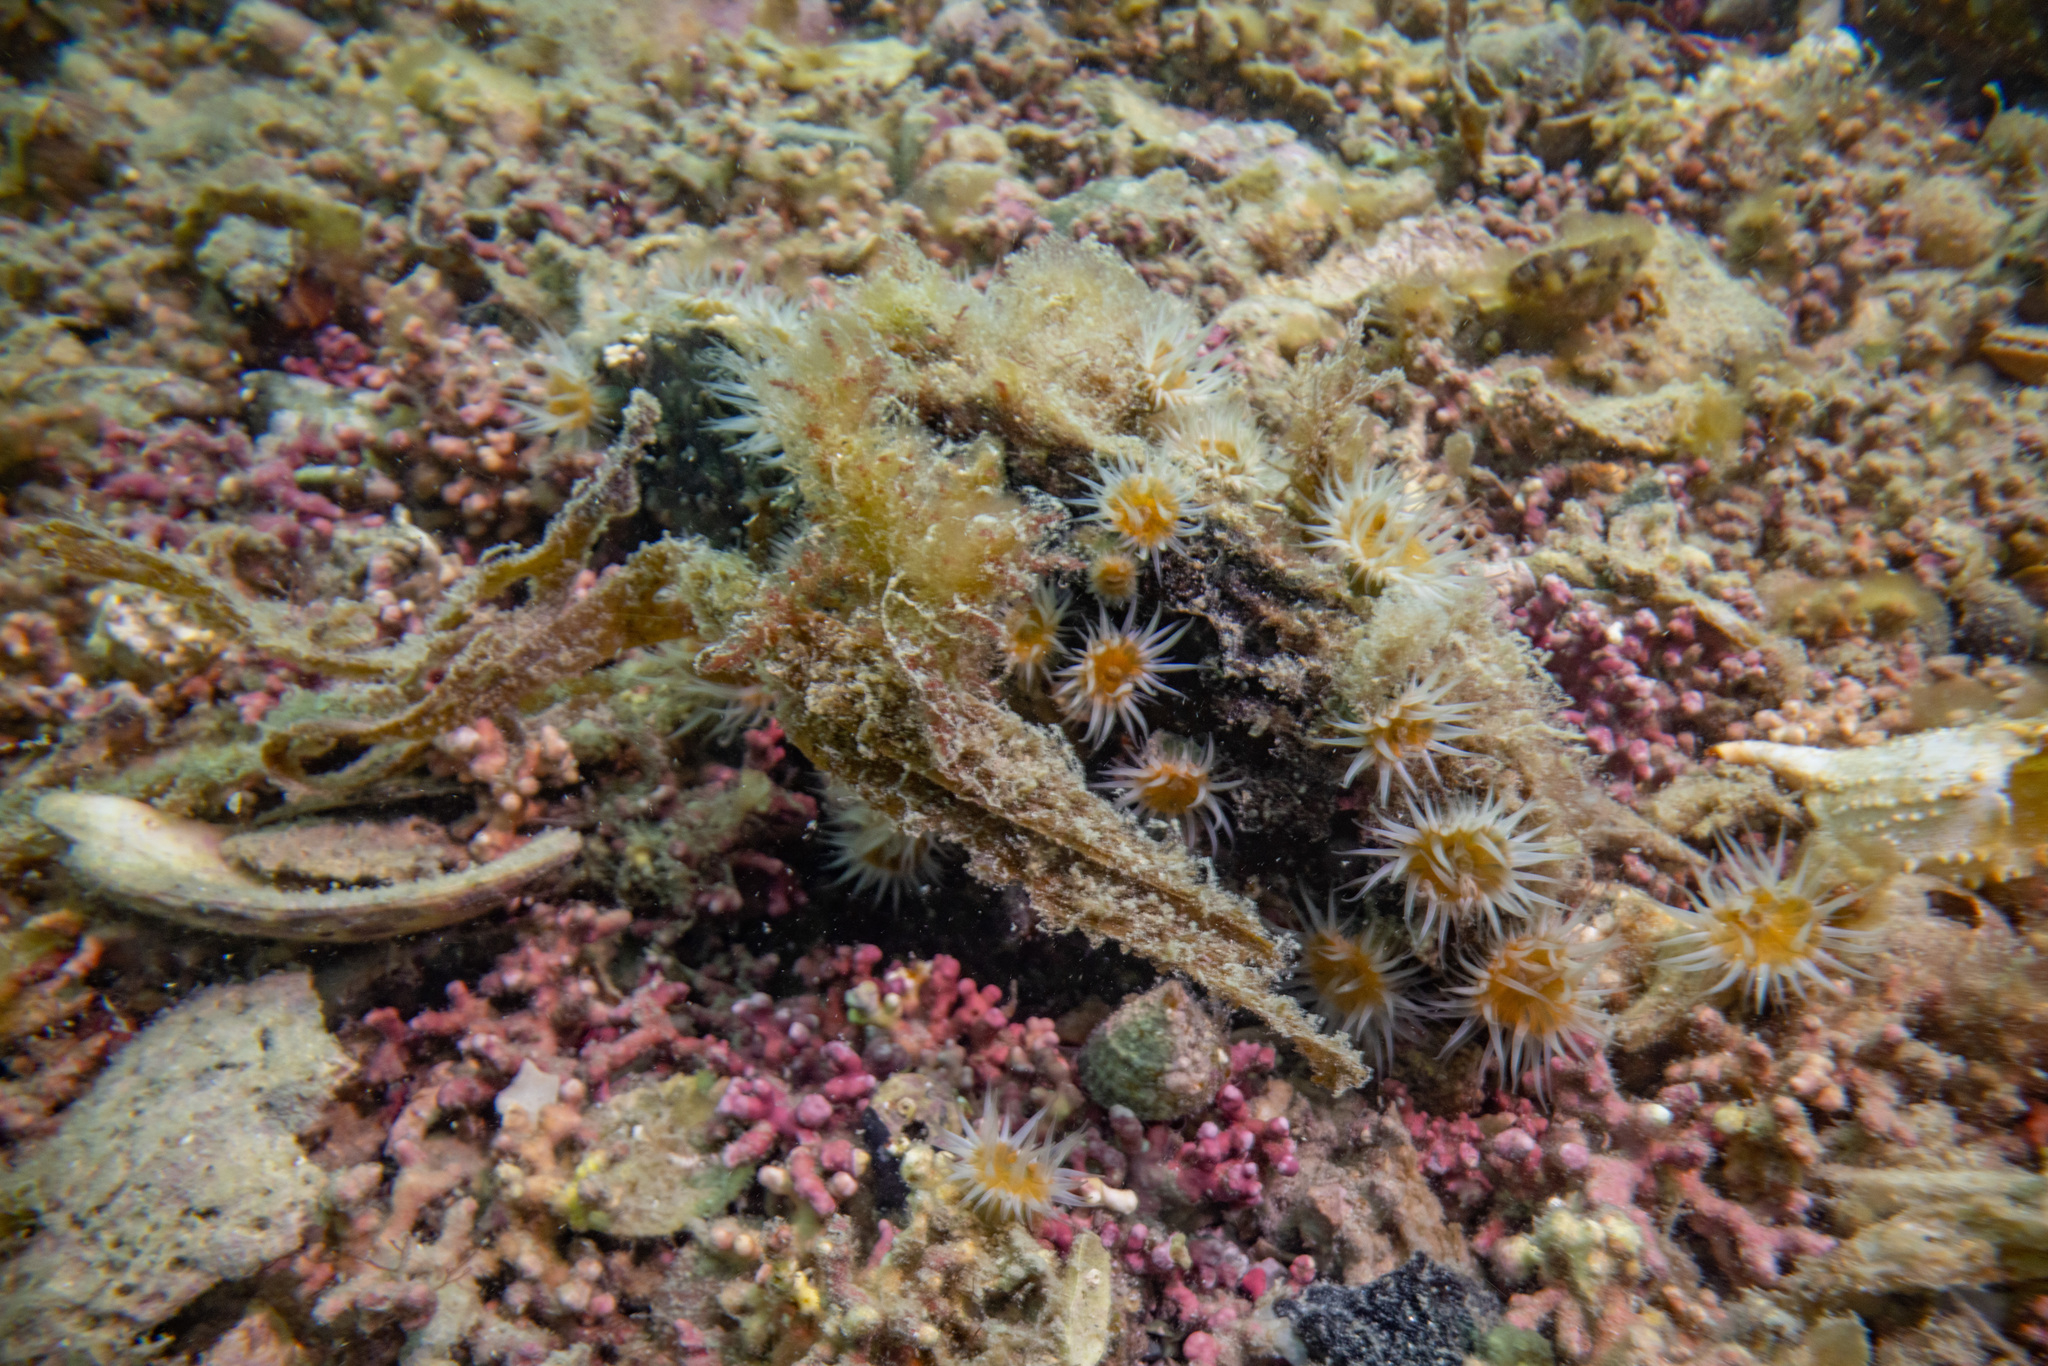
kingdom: Animalia
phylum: Mollusca
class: Bivalvia
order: Ostreida
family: Pinnidae
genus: Atrina
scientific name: Atrina zelandica
